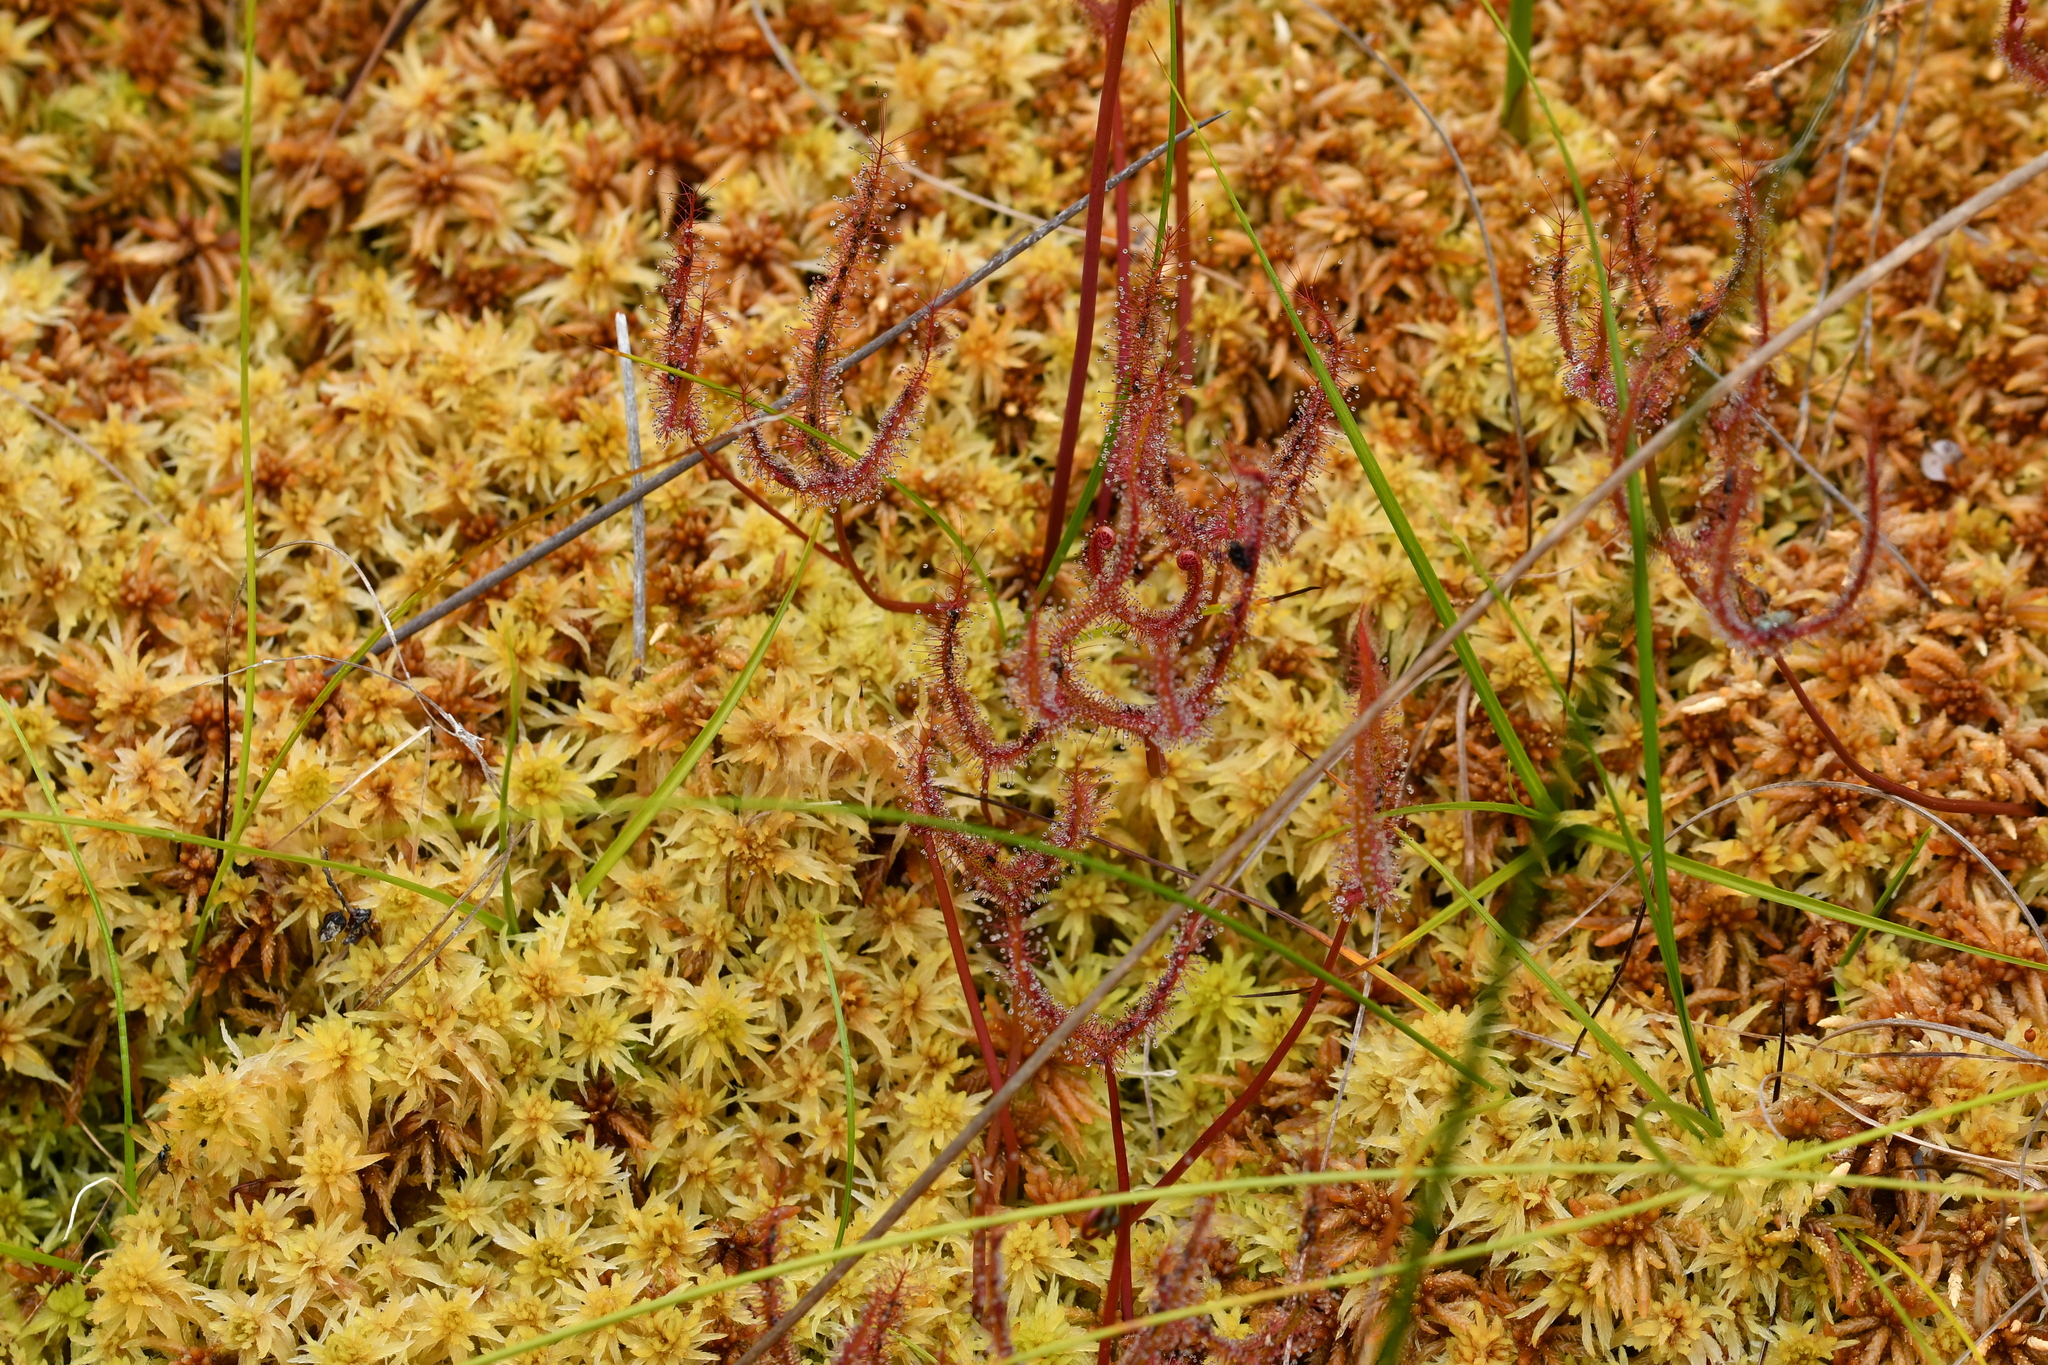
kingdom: Plantae
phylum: Tracheophyta
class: Magnoliopsida
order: Caryophyllales
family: Droseraceae
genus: Drosera
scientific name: Drosera binata
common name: Forked sundew
